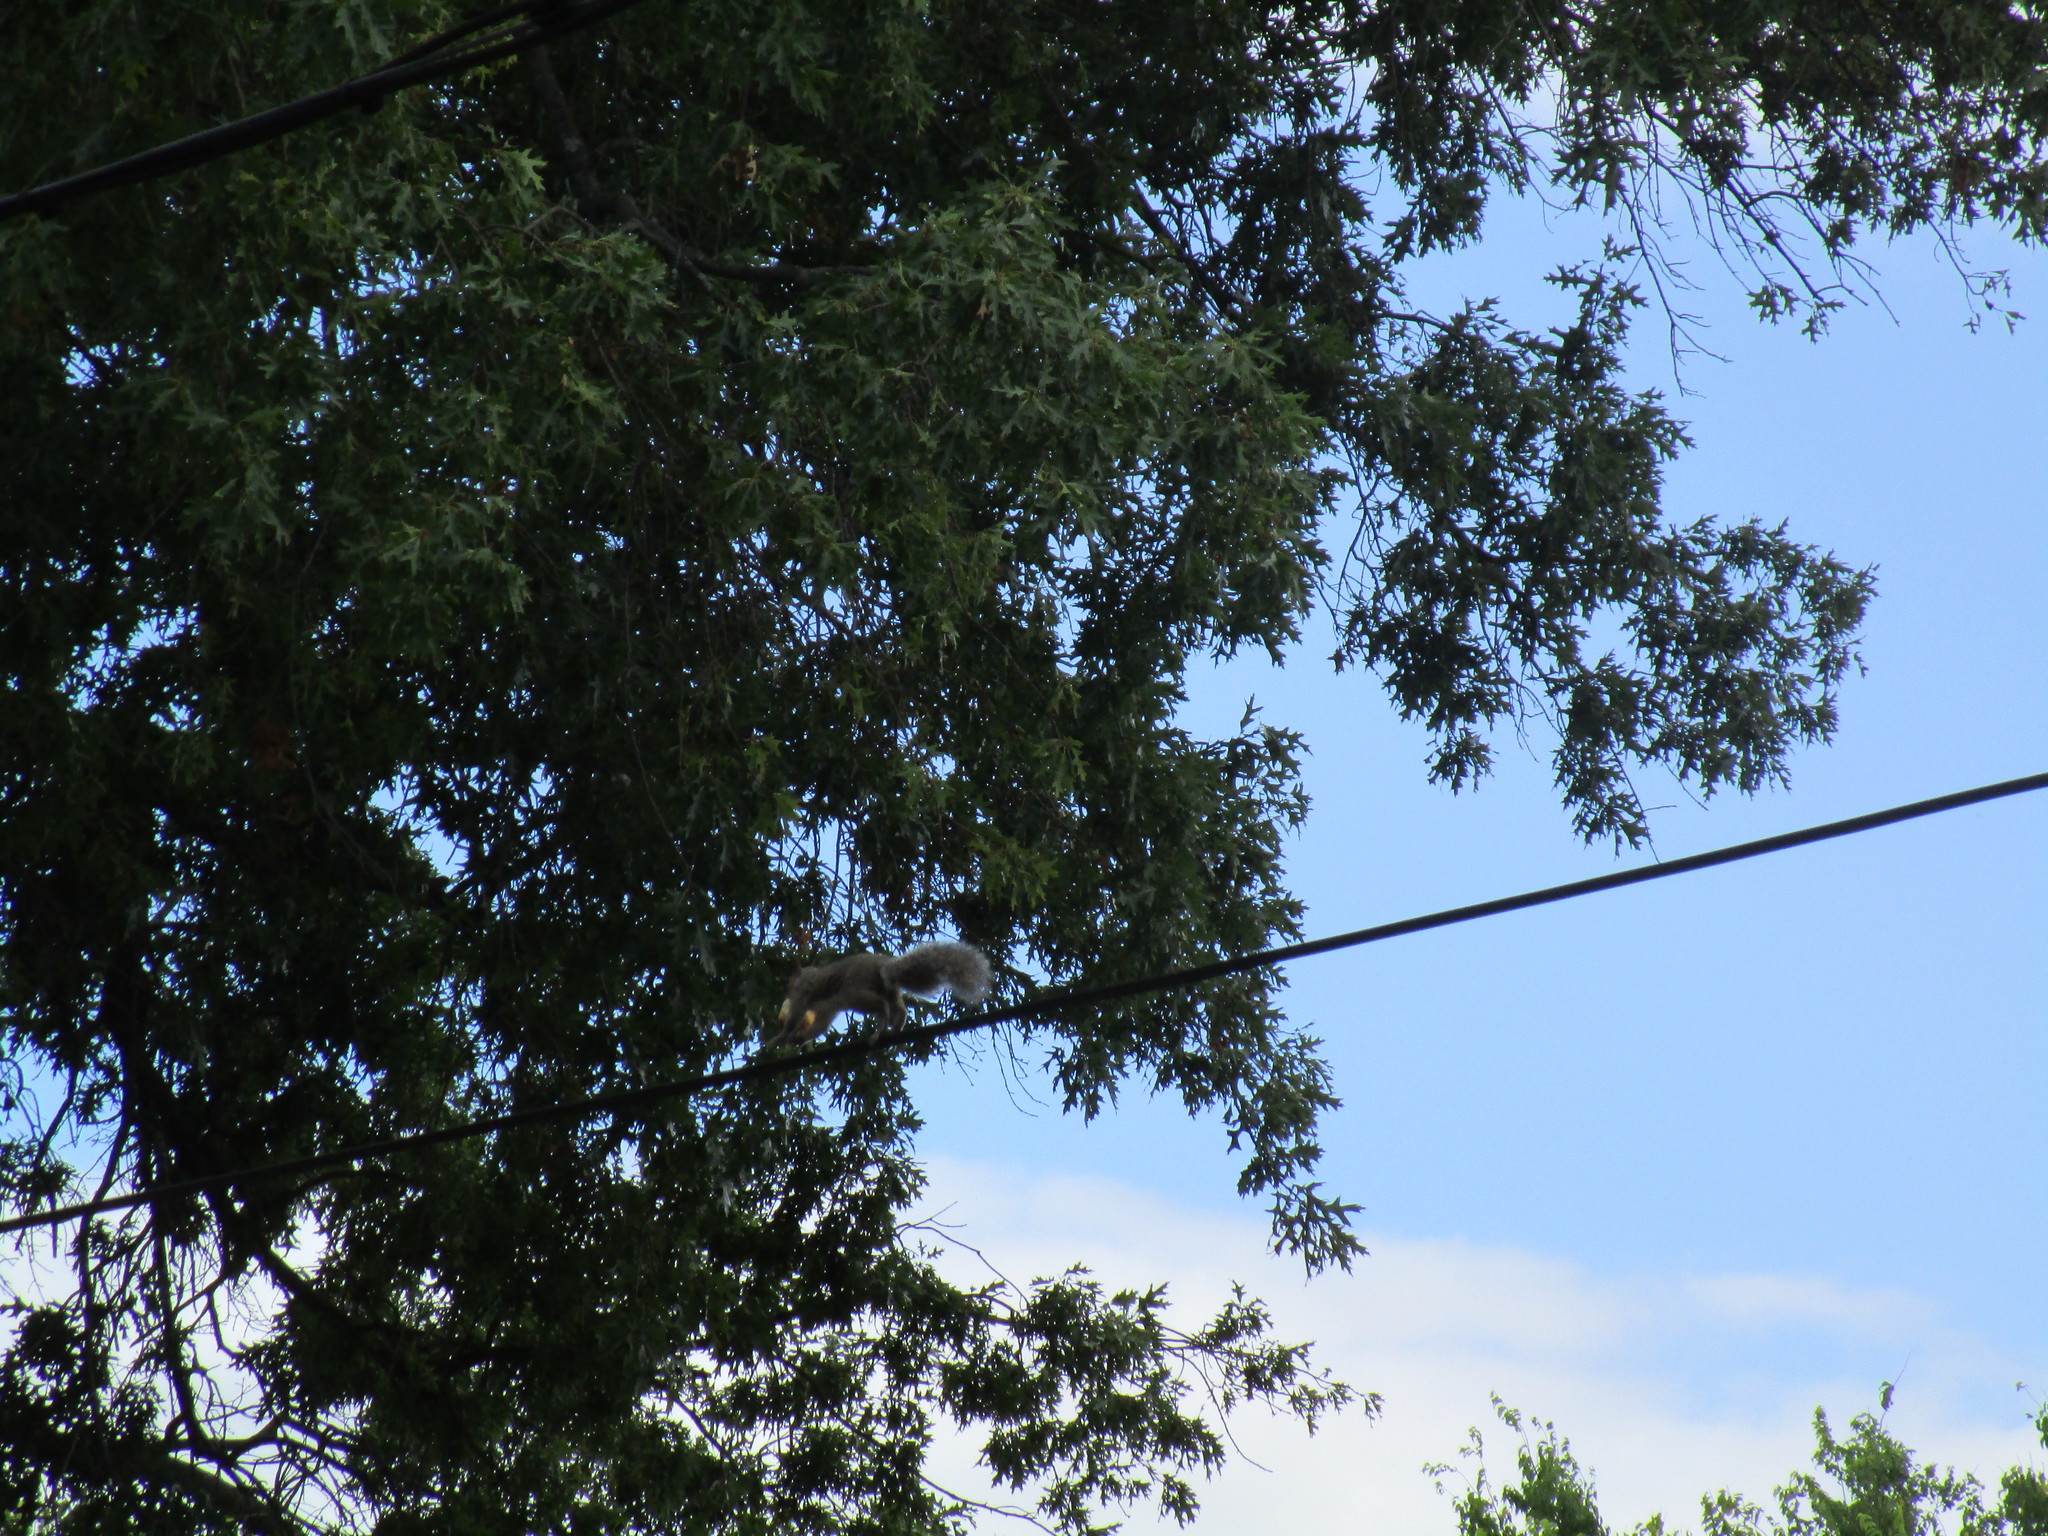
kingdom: Animalia
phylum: Chordata
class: Mammalia
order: Rodentia
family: Sciuridae
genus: Sciurus
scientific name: Sciurus carolinensis
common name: Eastern gray squirrel
